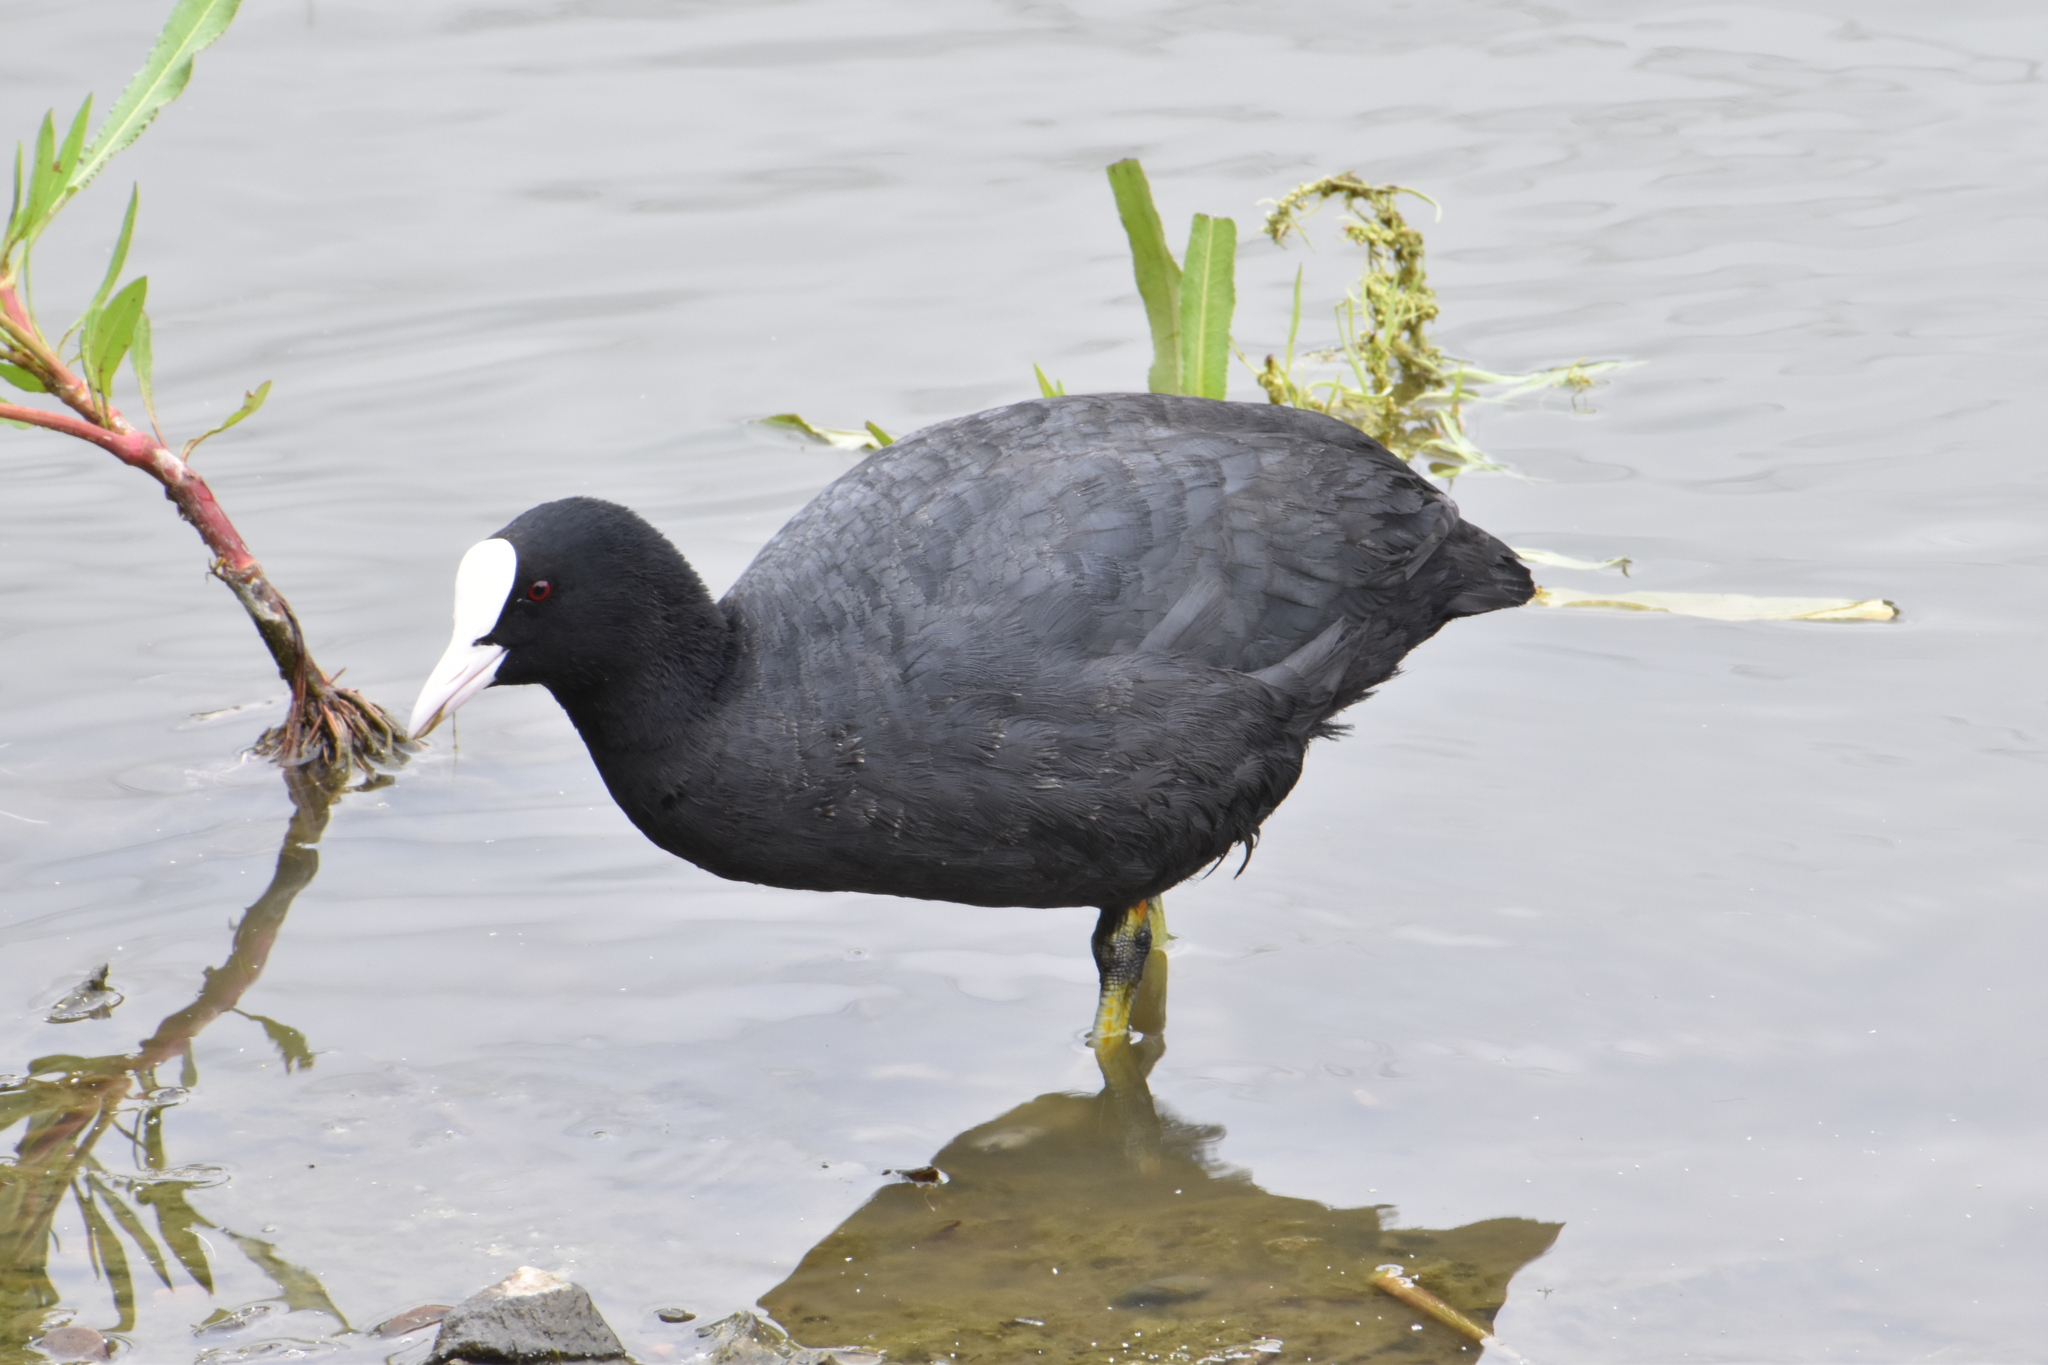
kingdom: Animalia
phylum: Chordata
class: Aves
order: Gruiformes
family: Rallidae
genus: Fulica
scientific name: Fulica atra
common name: Eurasian coot
